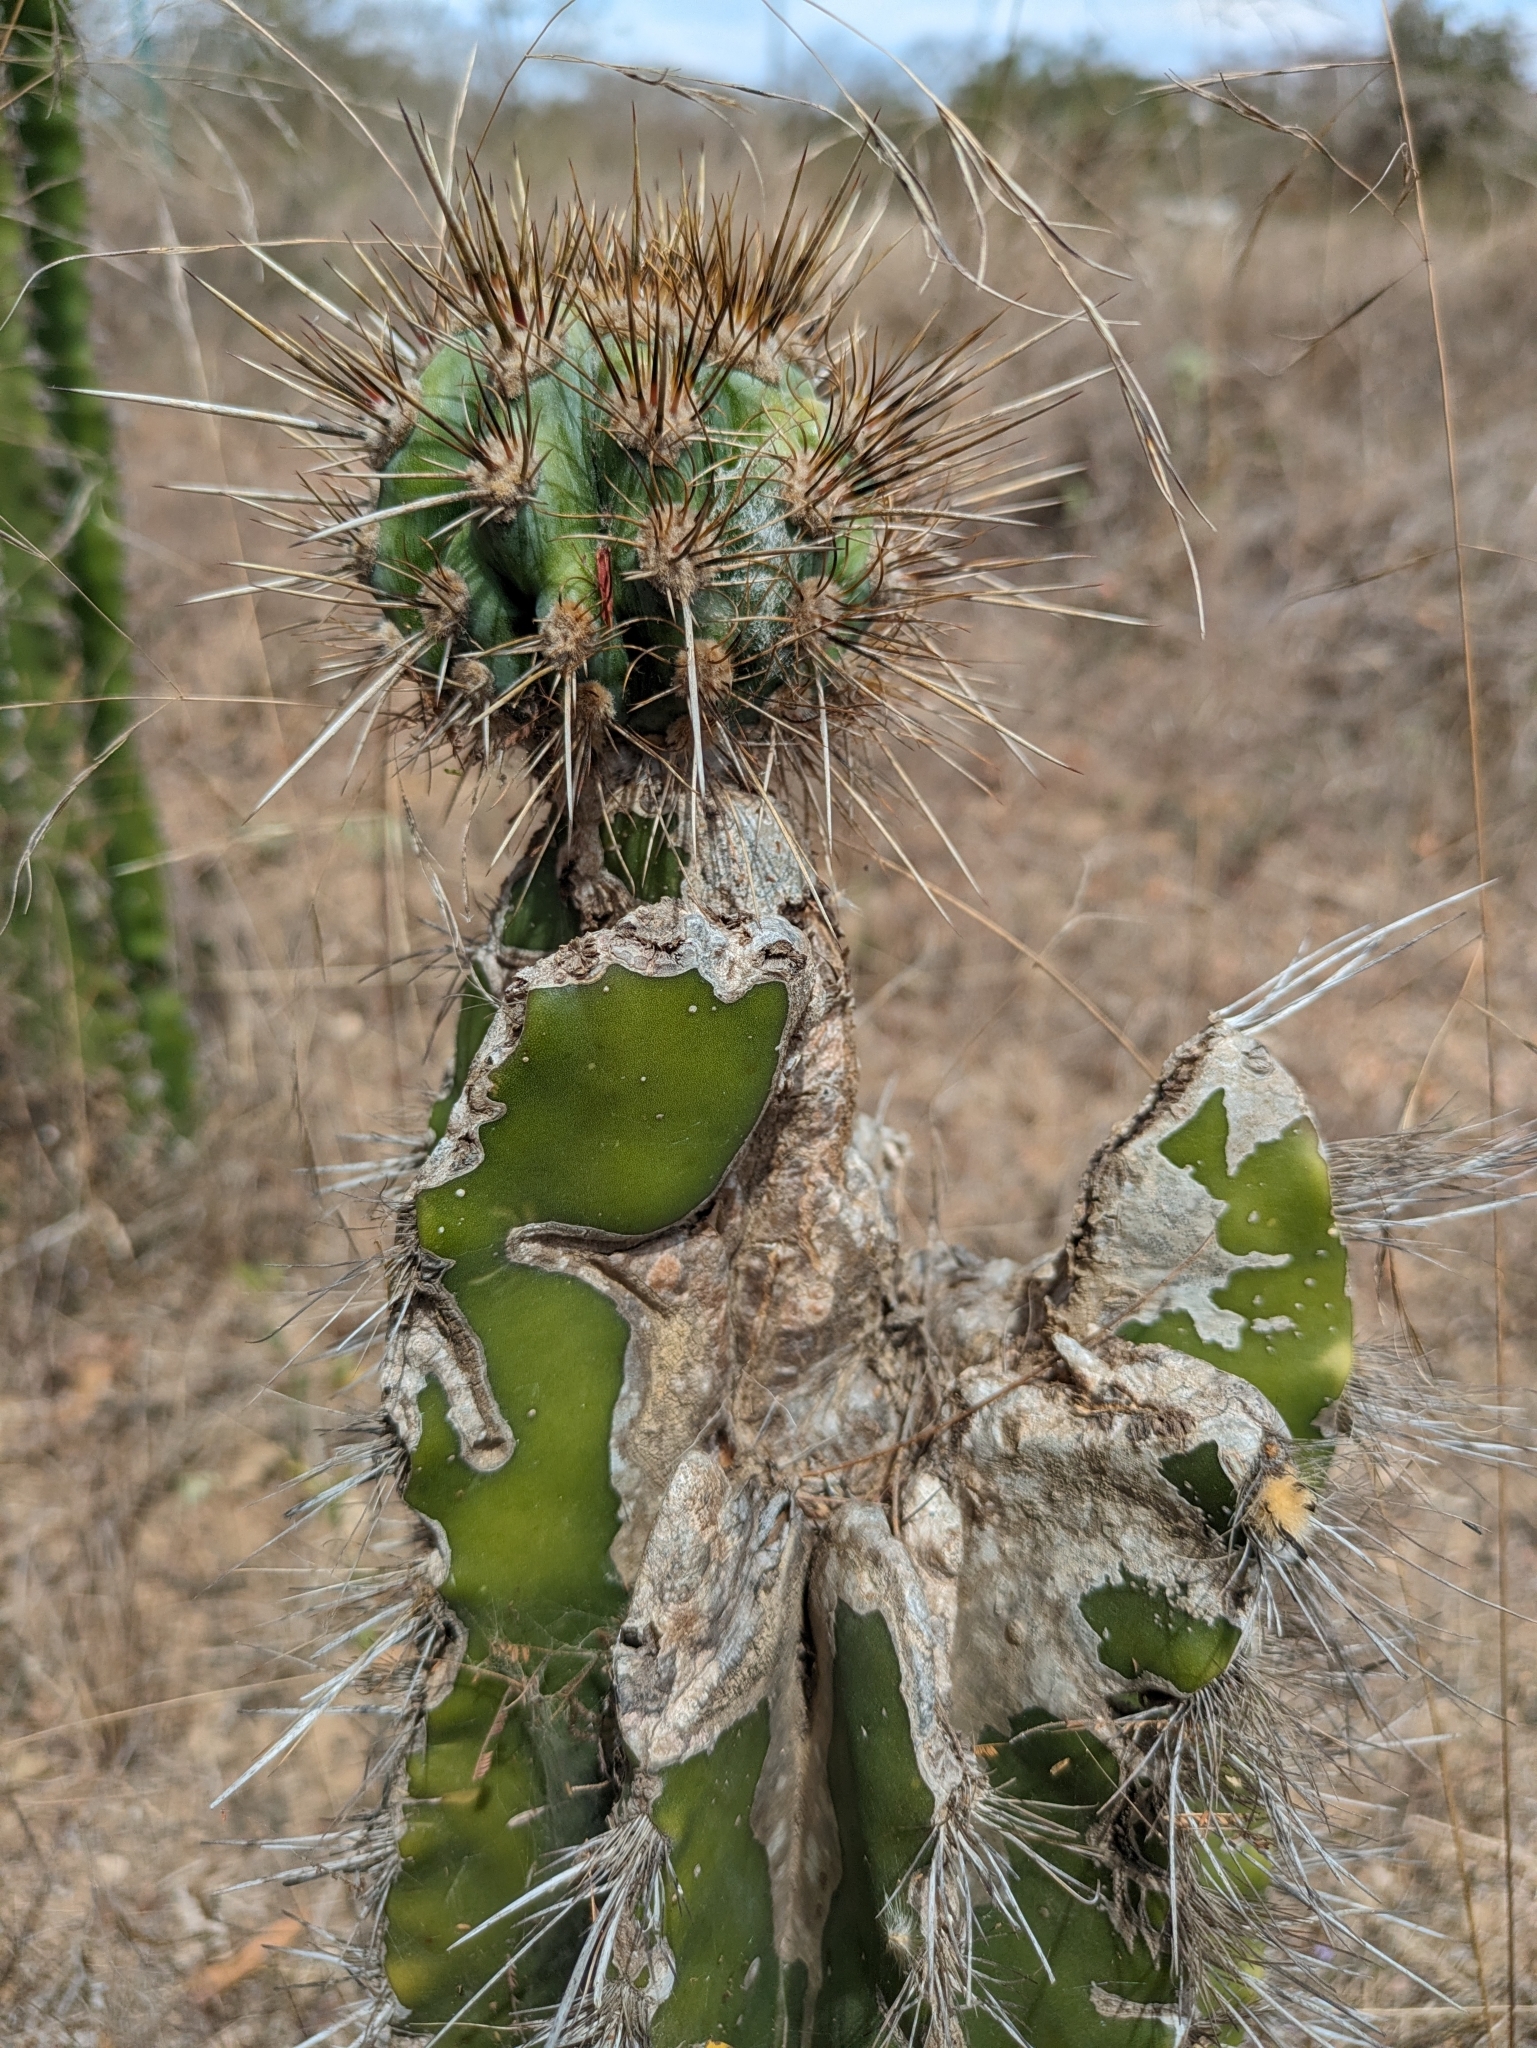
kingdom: Plantae
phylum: Tracheophyta
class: Magnoliopsida
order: Caryophyllales
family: Cactaceae
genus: Pachycereus
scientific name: Pachycereus pecten-aboriginum
